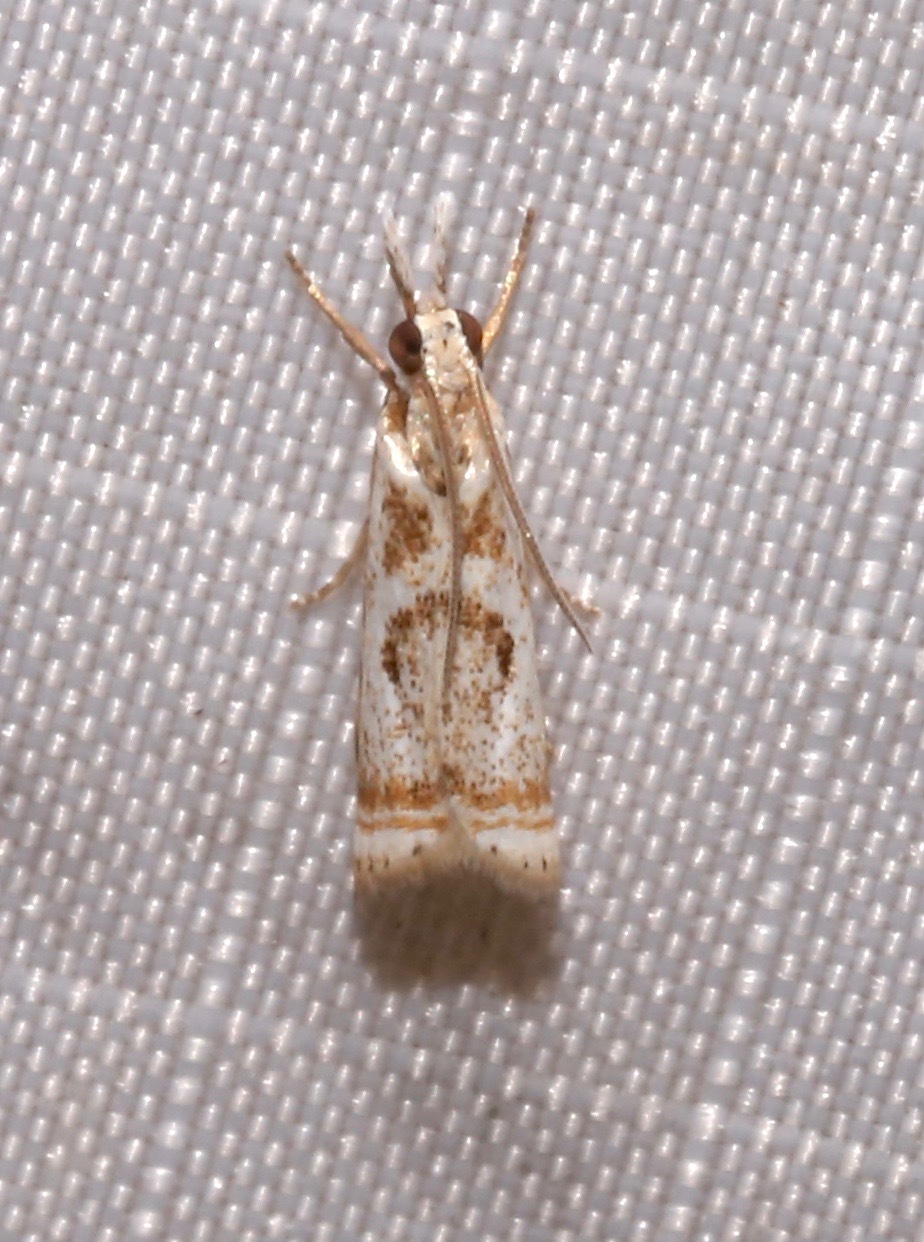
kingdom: Animalia
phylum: Arthropoda
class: Insecta
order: Lepidoptera
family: Crambidae
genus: Microcrambus
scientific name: Microcrambus elegans
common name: Elegant grass-veneer
